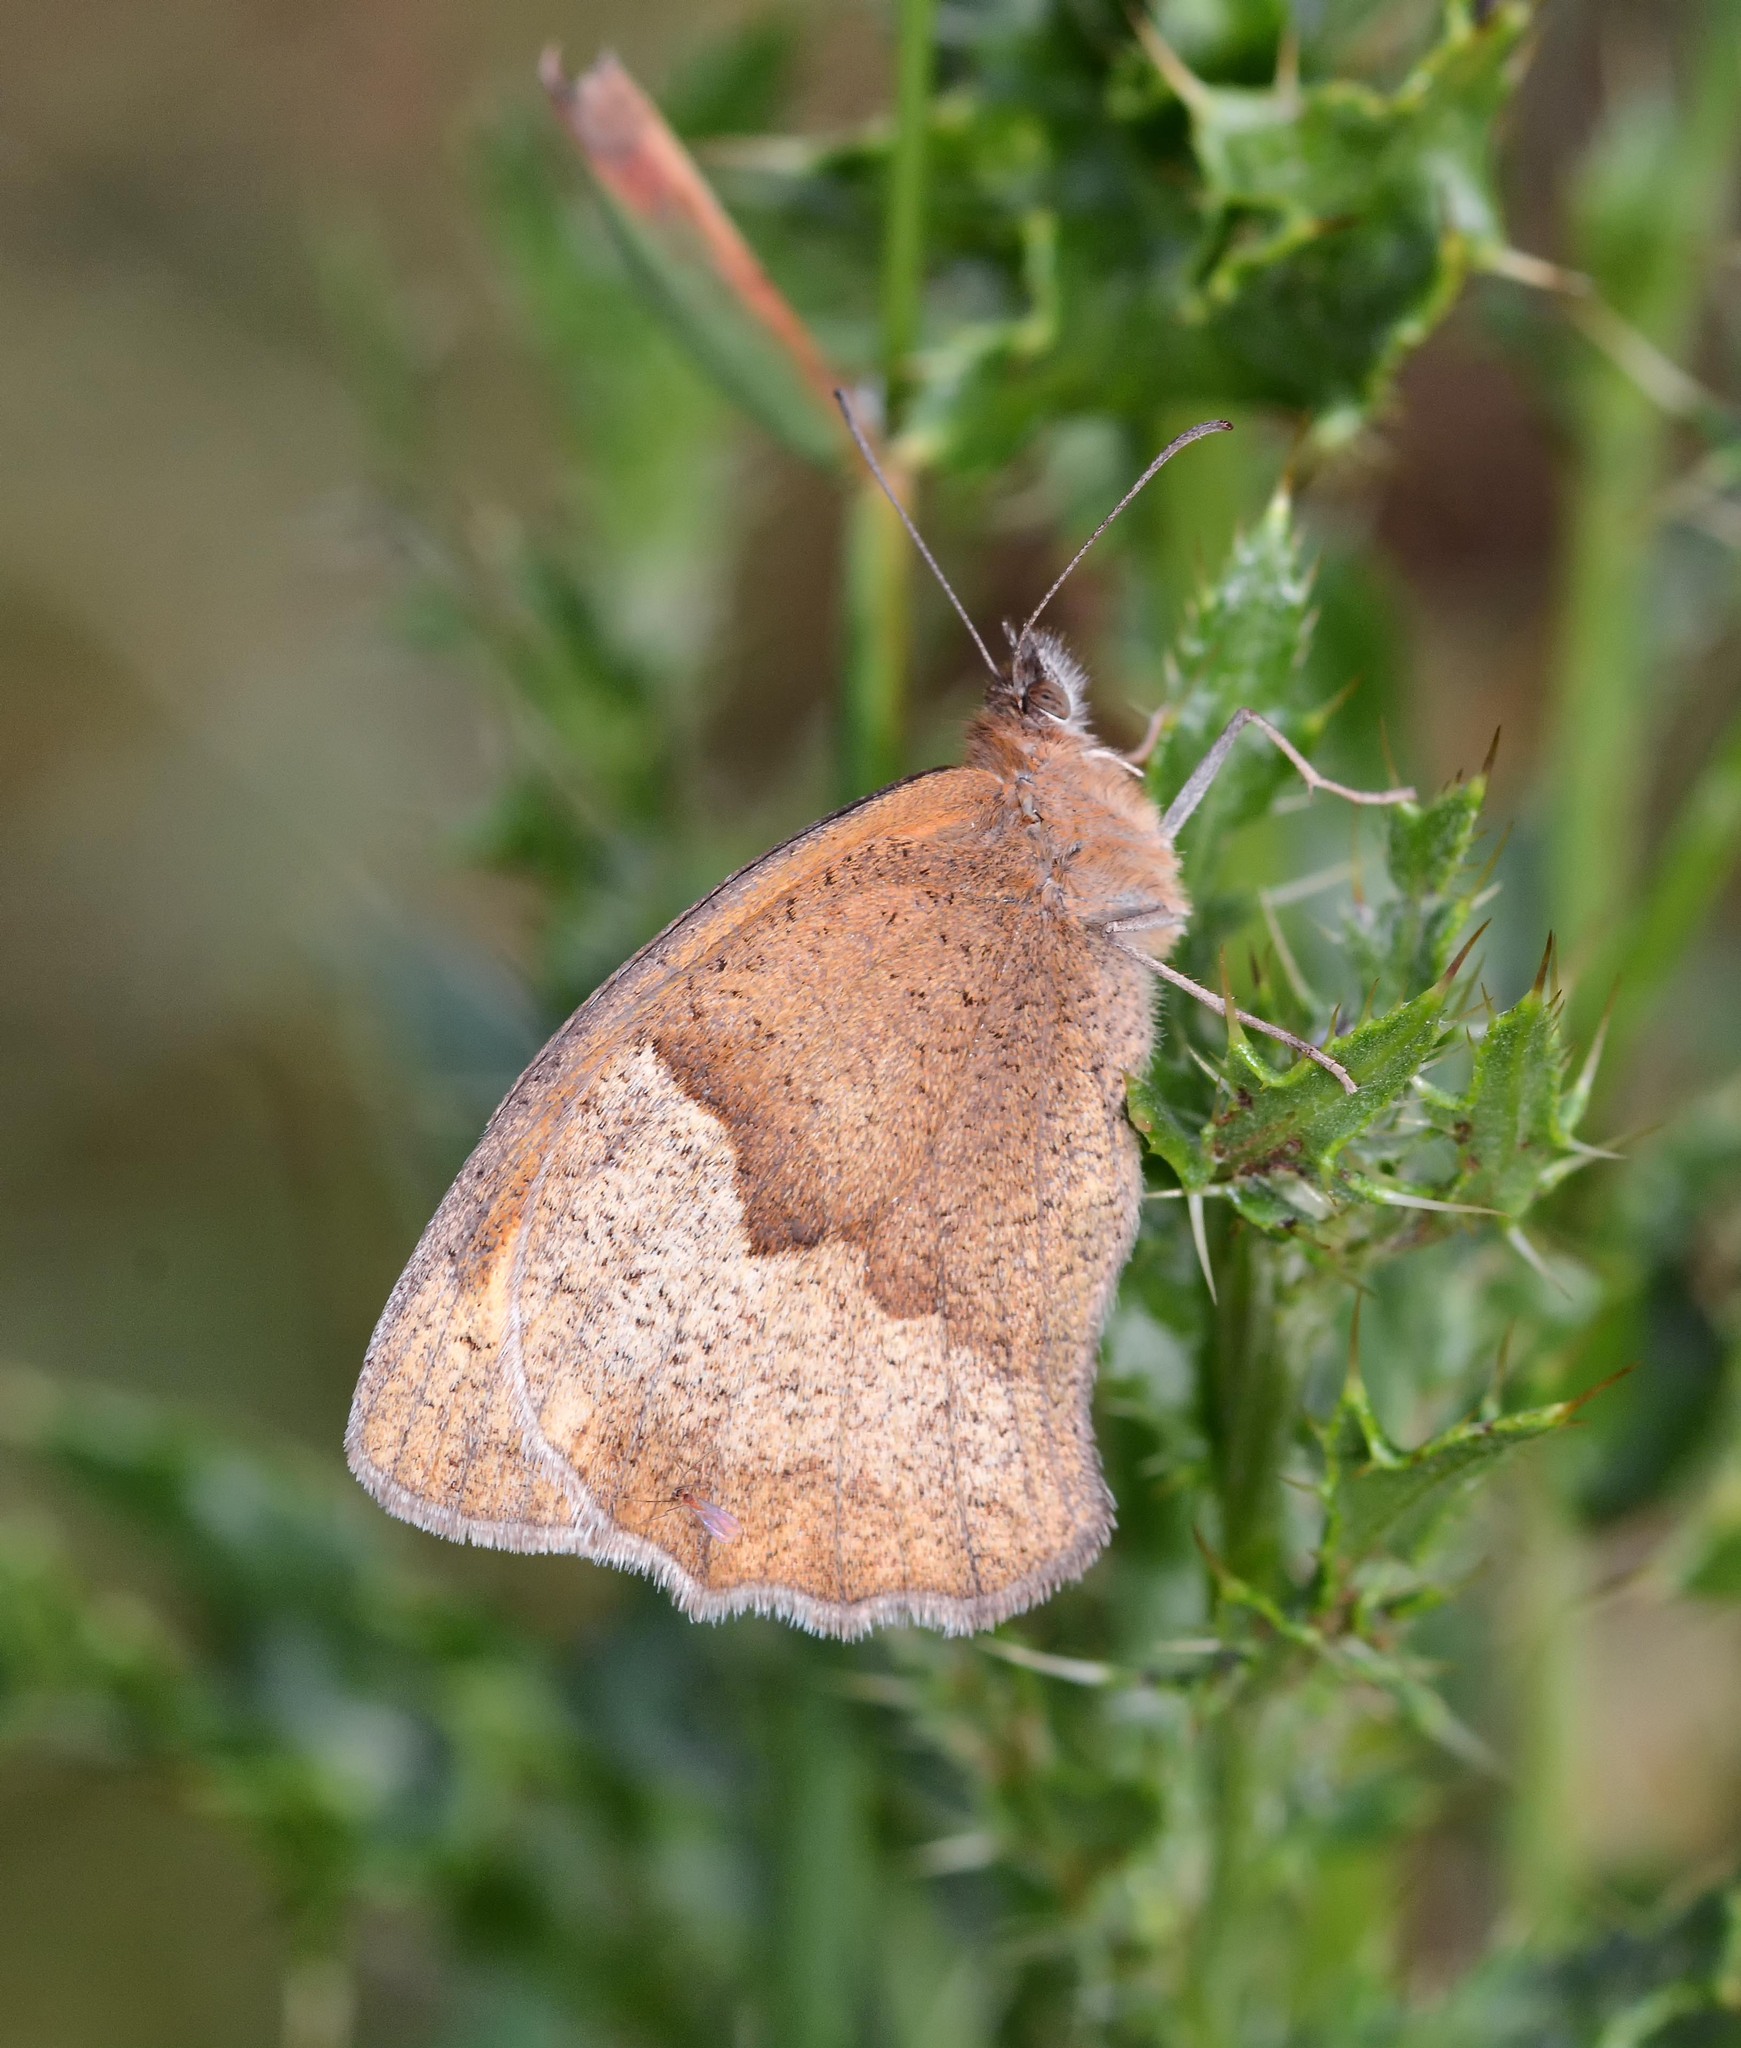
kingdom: Animalia
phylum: Arthropoda
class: Insecta
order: Lepidoptera
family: Nymphalidae
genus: Maniola
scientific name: Maniola jurtina
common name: Meadow brown
